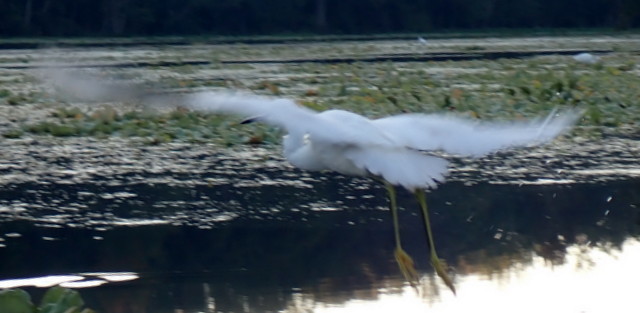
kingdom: Animalia
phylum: Chordata
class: Aves
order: Pelecaniformes
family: Ardeidae
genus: Egretta
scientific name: Egretta thula
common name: Snowy egret
